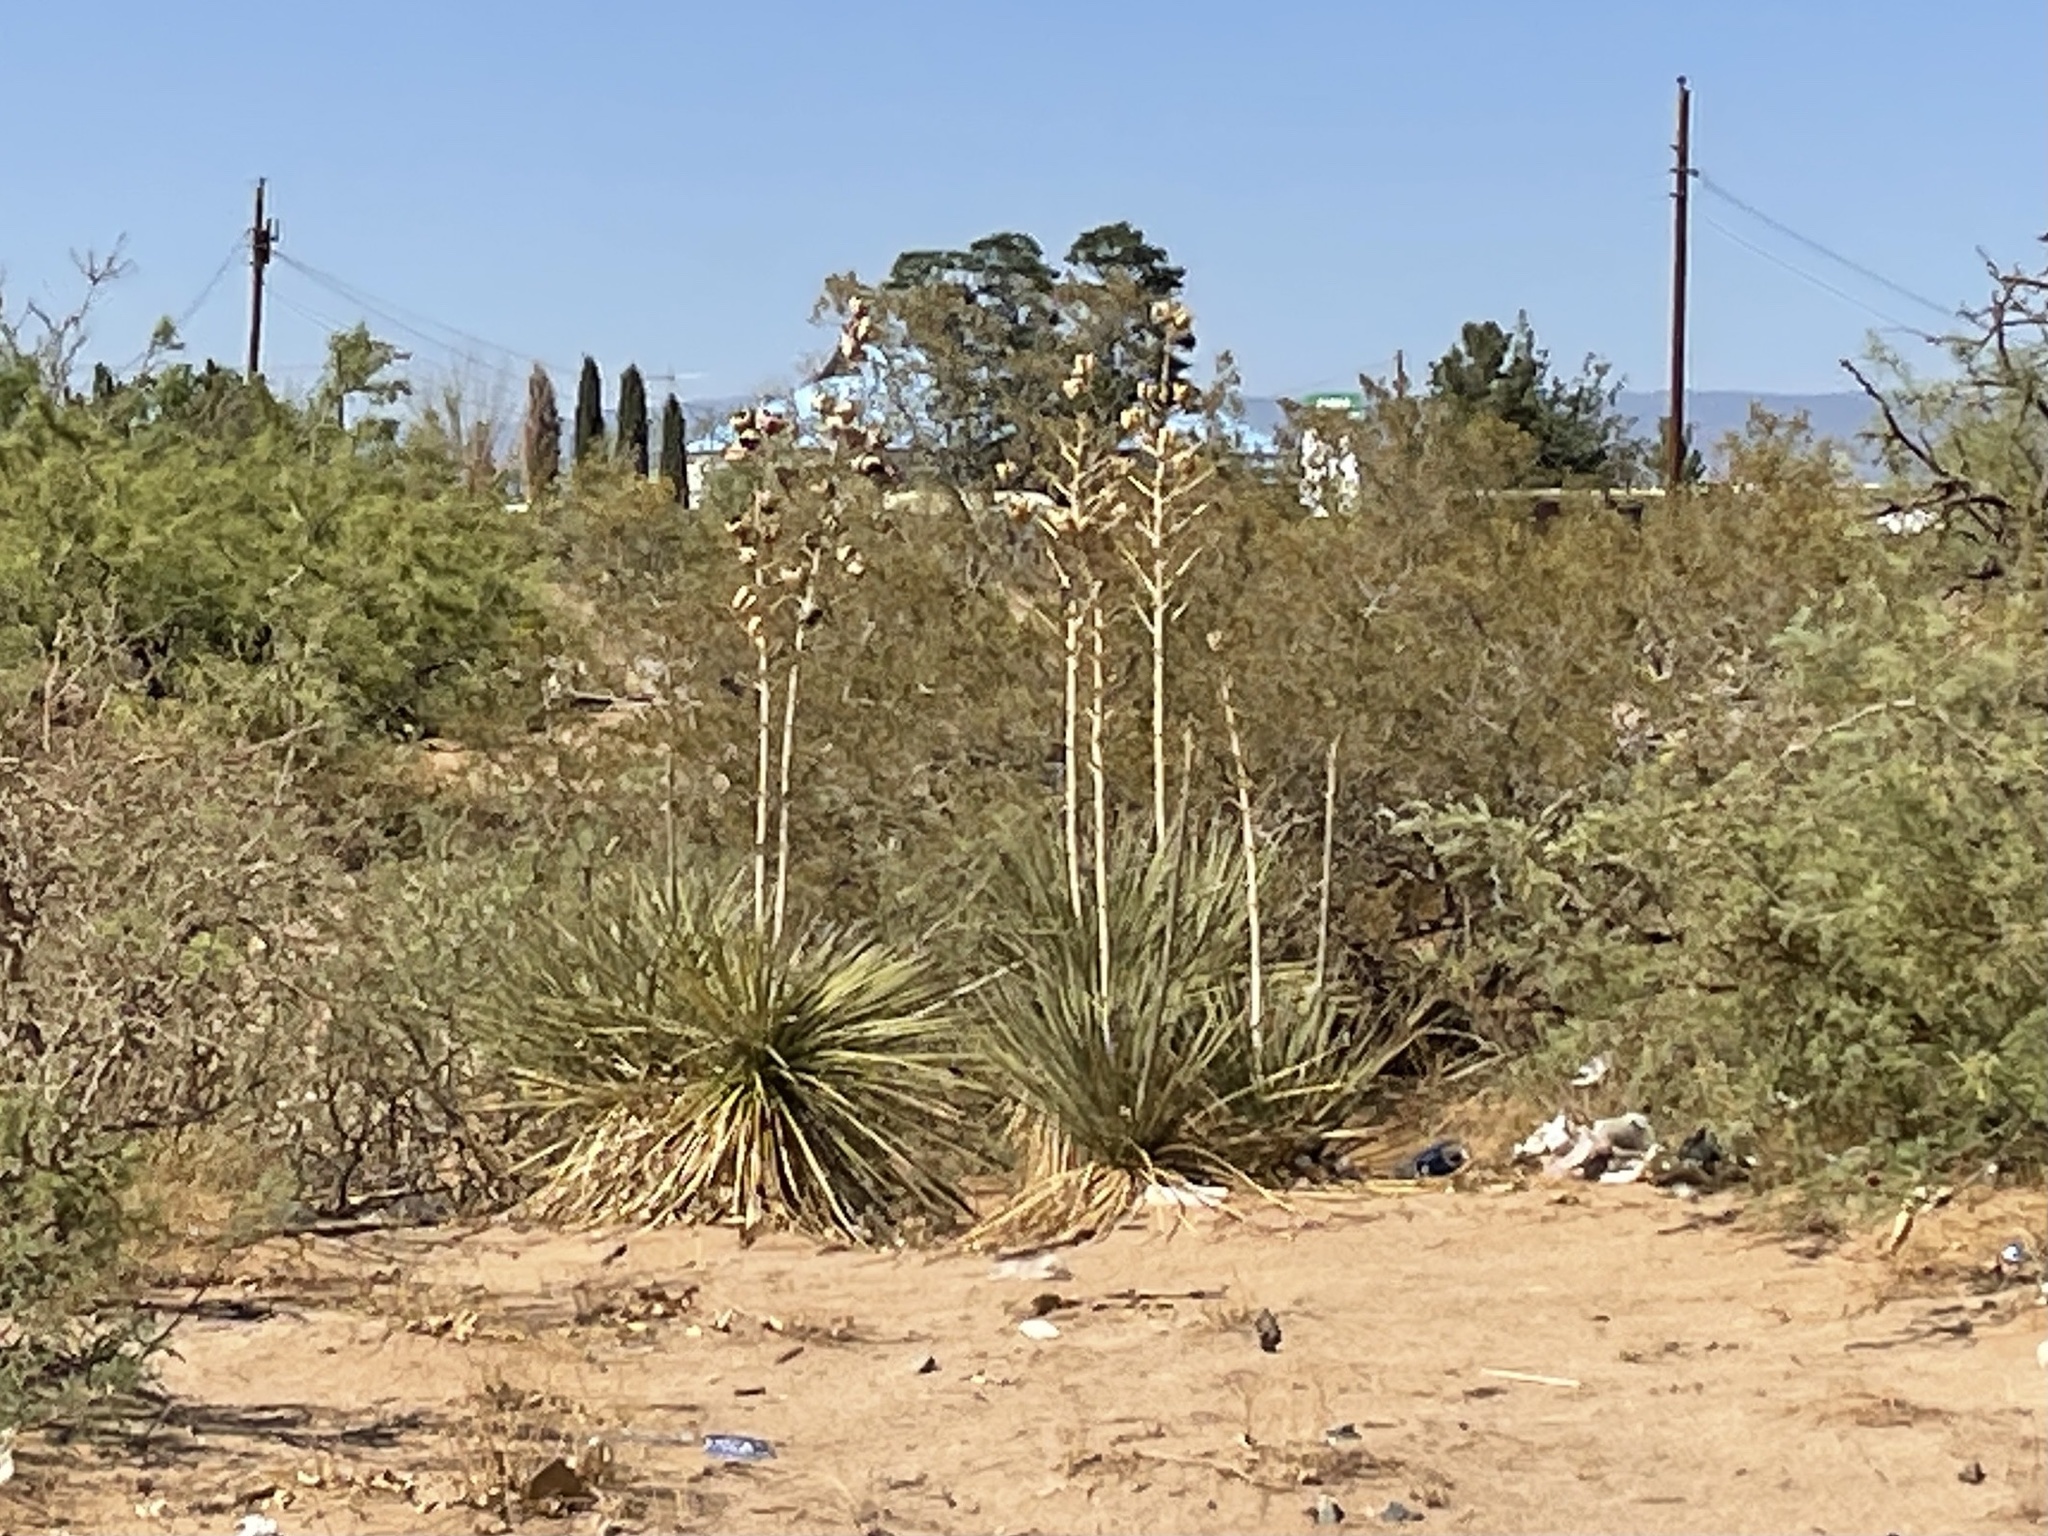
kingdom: Plantae
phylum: Tracheophyta
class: Liliopsida
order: Asparagales
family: Asparagaceae
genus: Yucca
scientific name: Yucca elata
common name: Palmella
